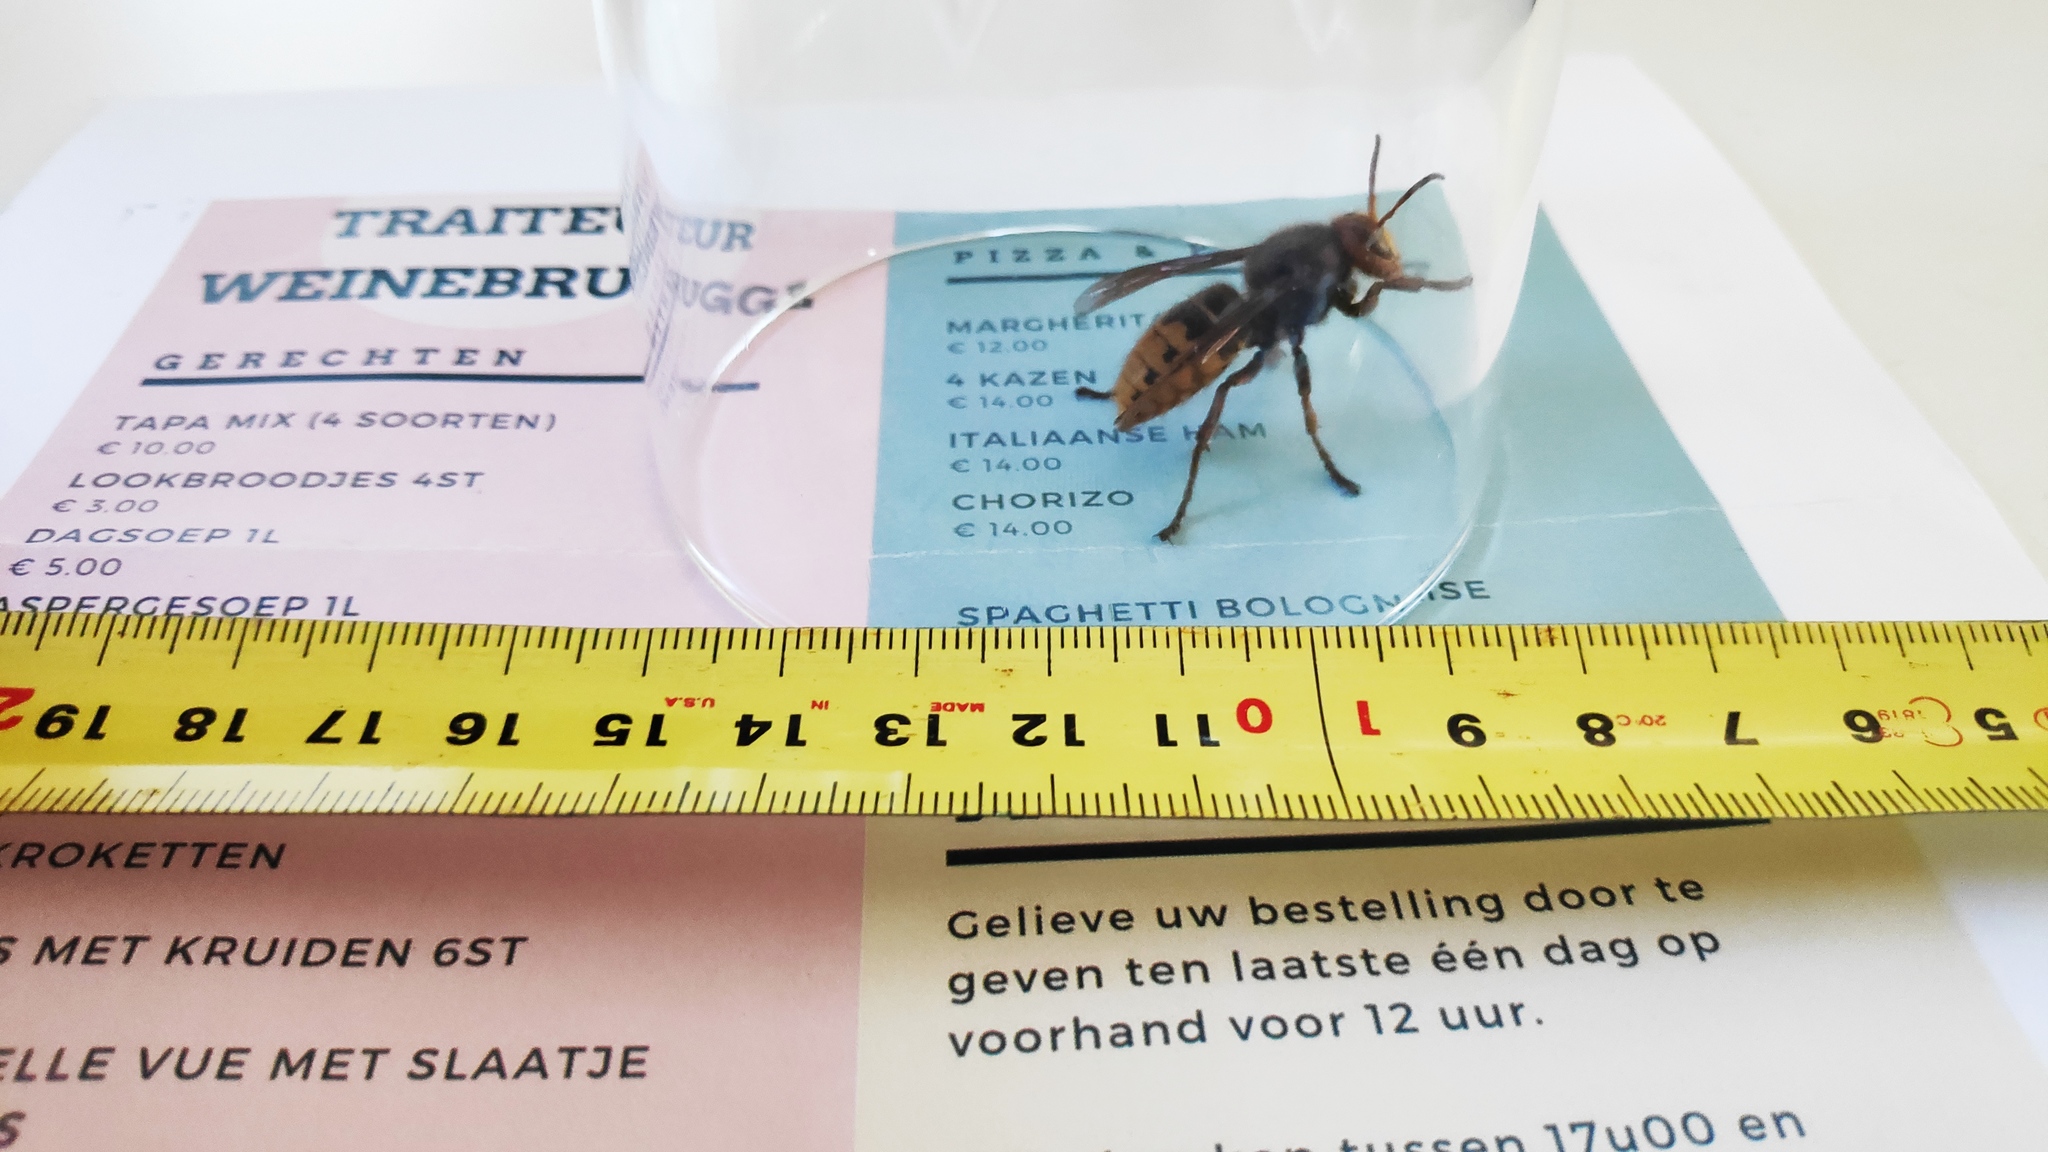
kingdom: Animalia
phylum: Arthropoda
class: Insecta
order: Hymenoptera
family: Vespidae
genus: Vespa
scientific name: Vespa crabro
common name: Hornet
